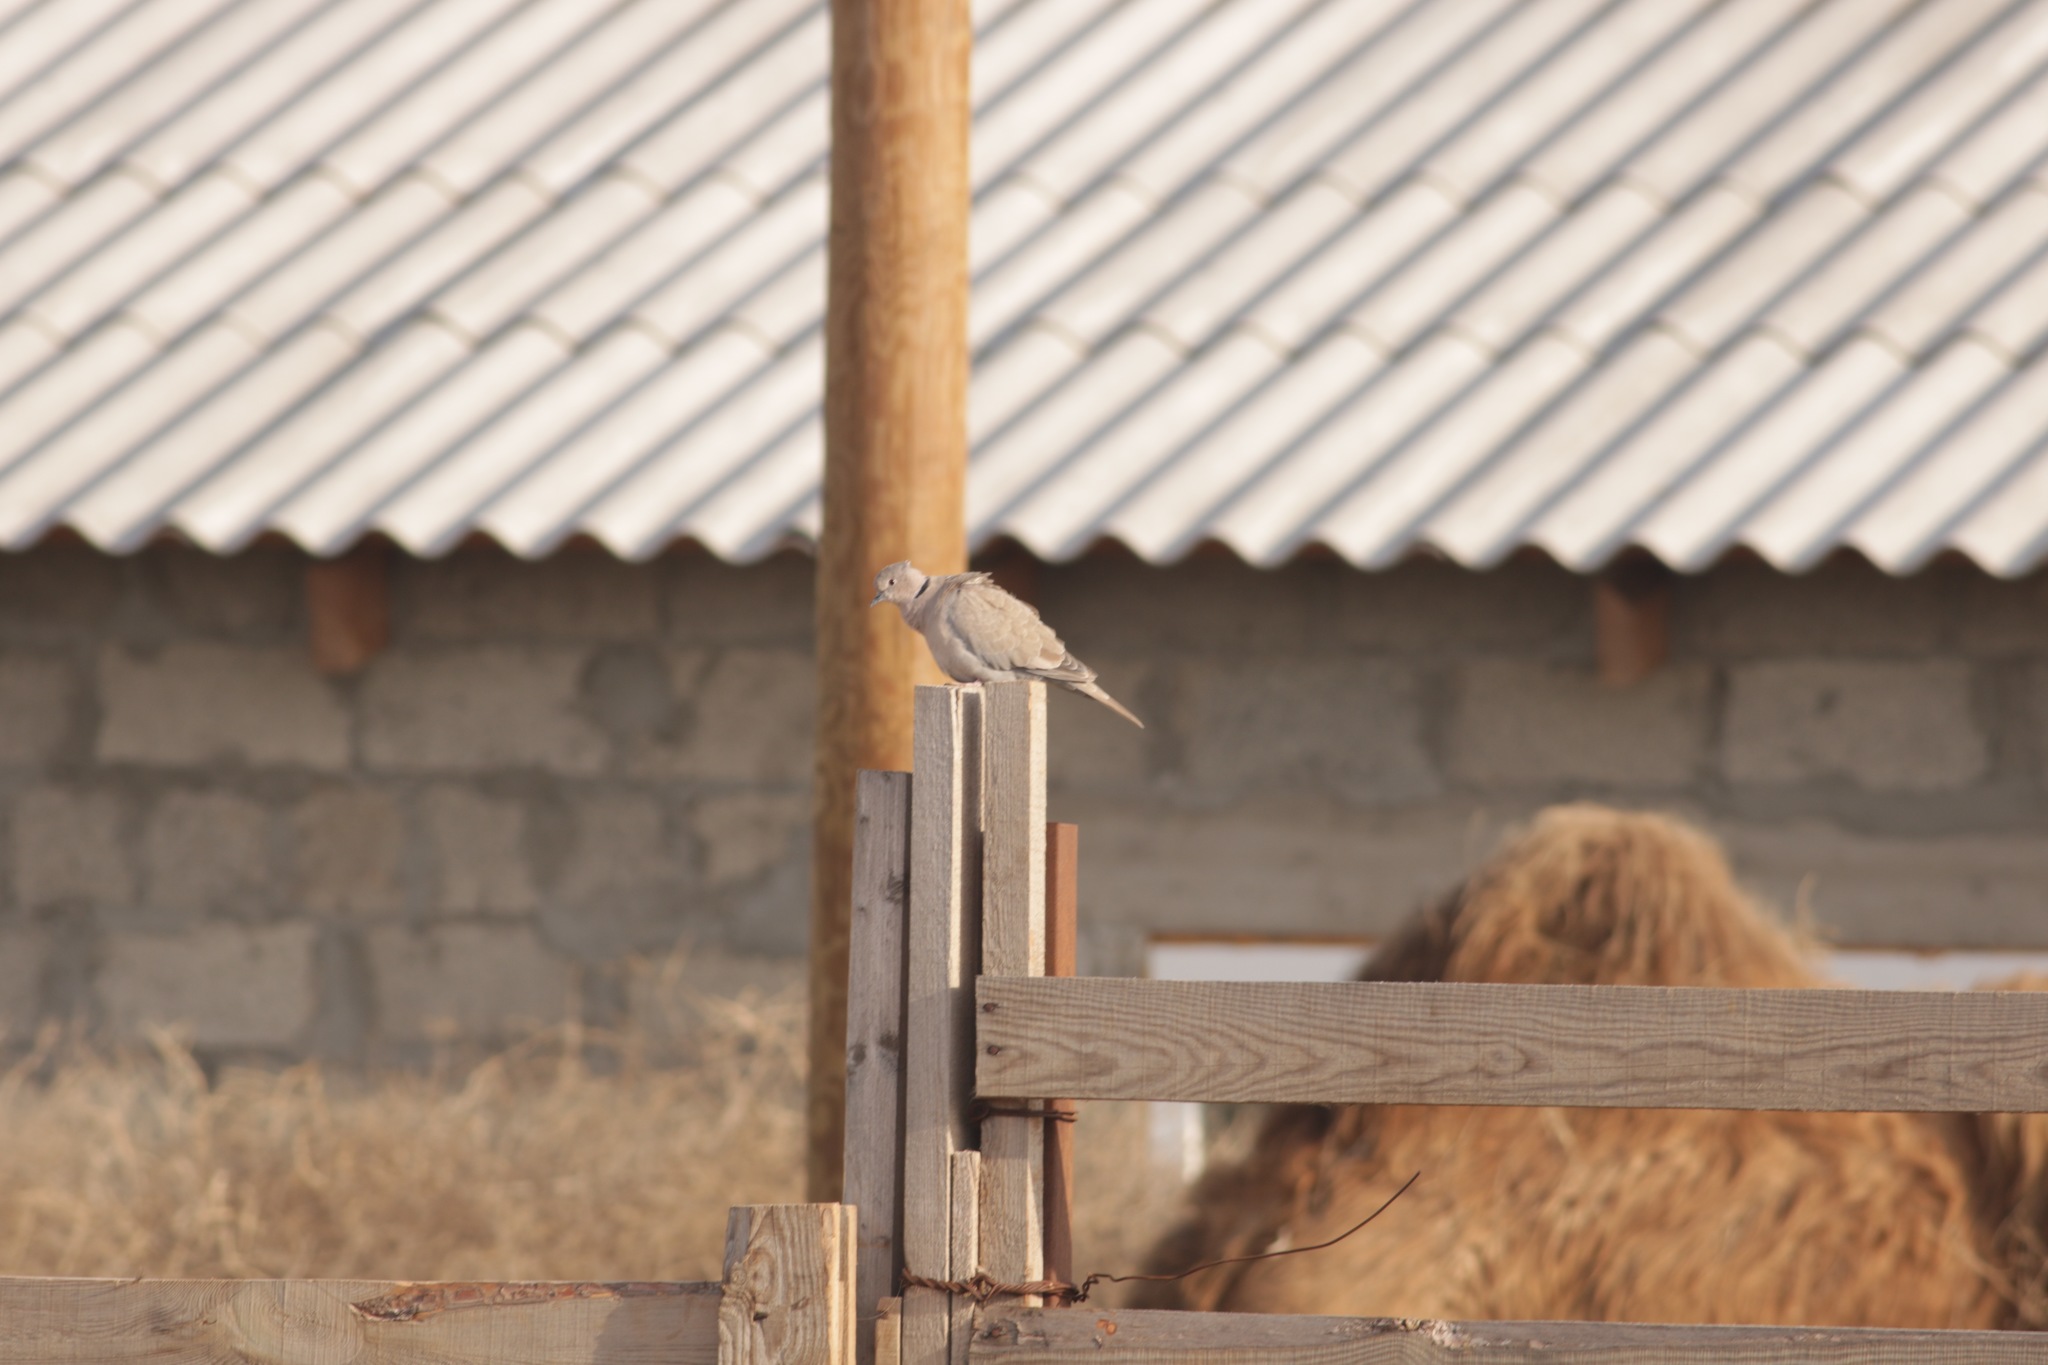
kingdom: Animalia
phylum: Chordata
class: Aves
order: Columbiformes
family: Columbidae
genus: Streptopelia
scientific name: Streptopelia decaocto
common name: Eurasian collared dove
